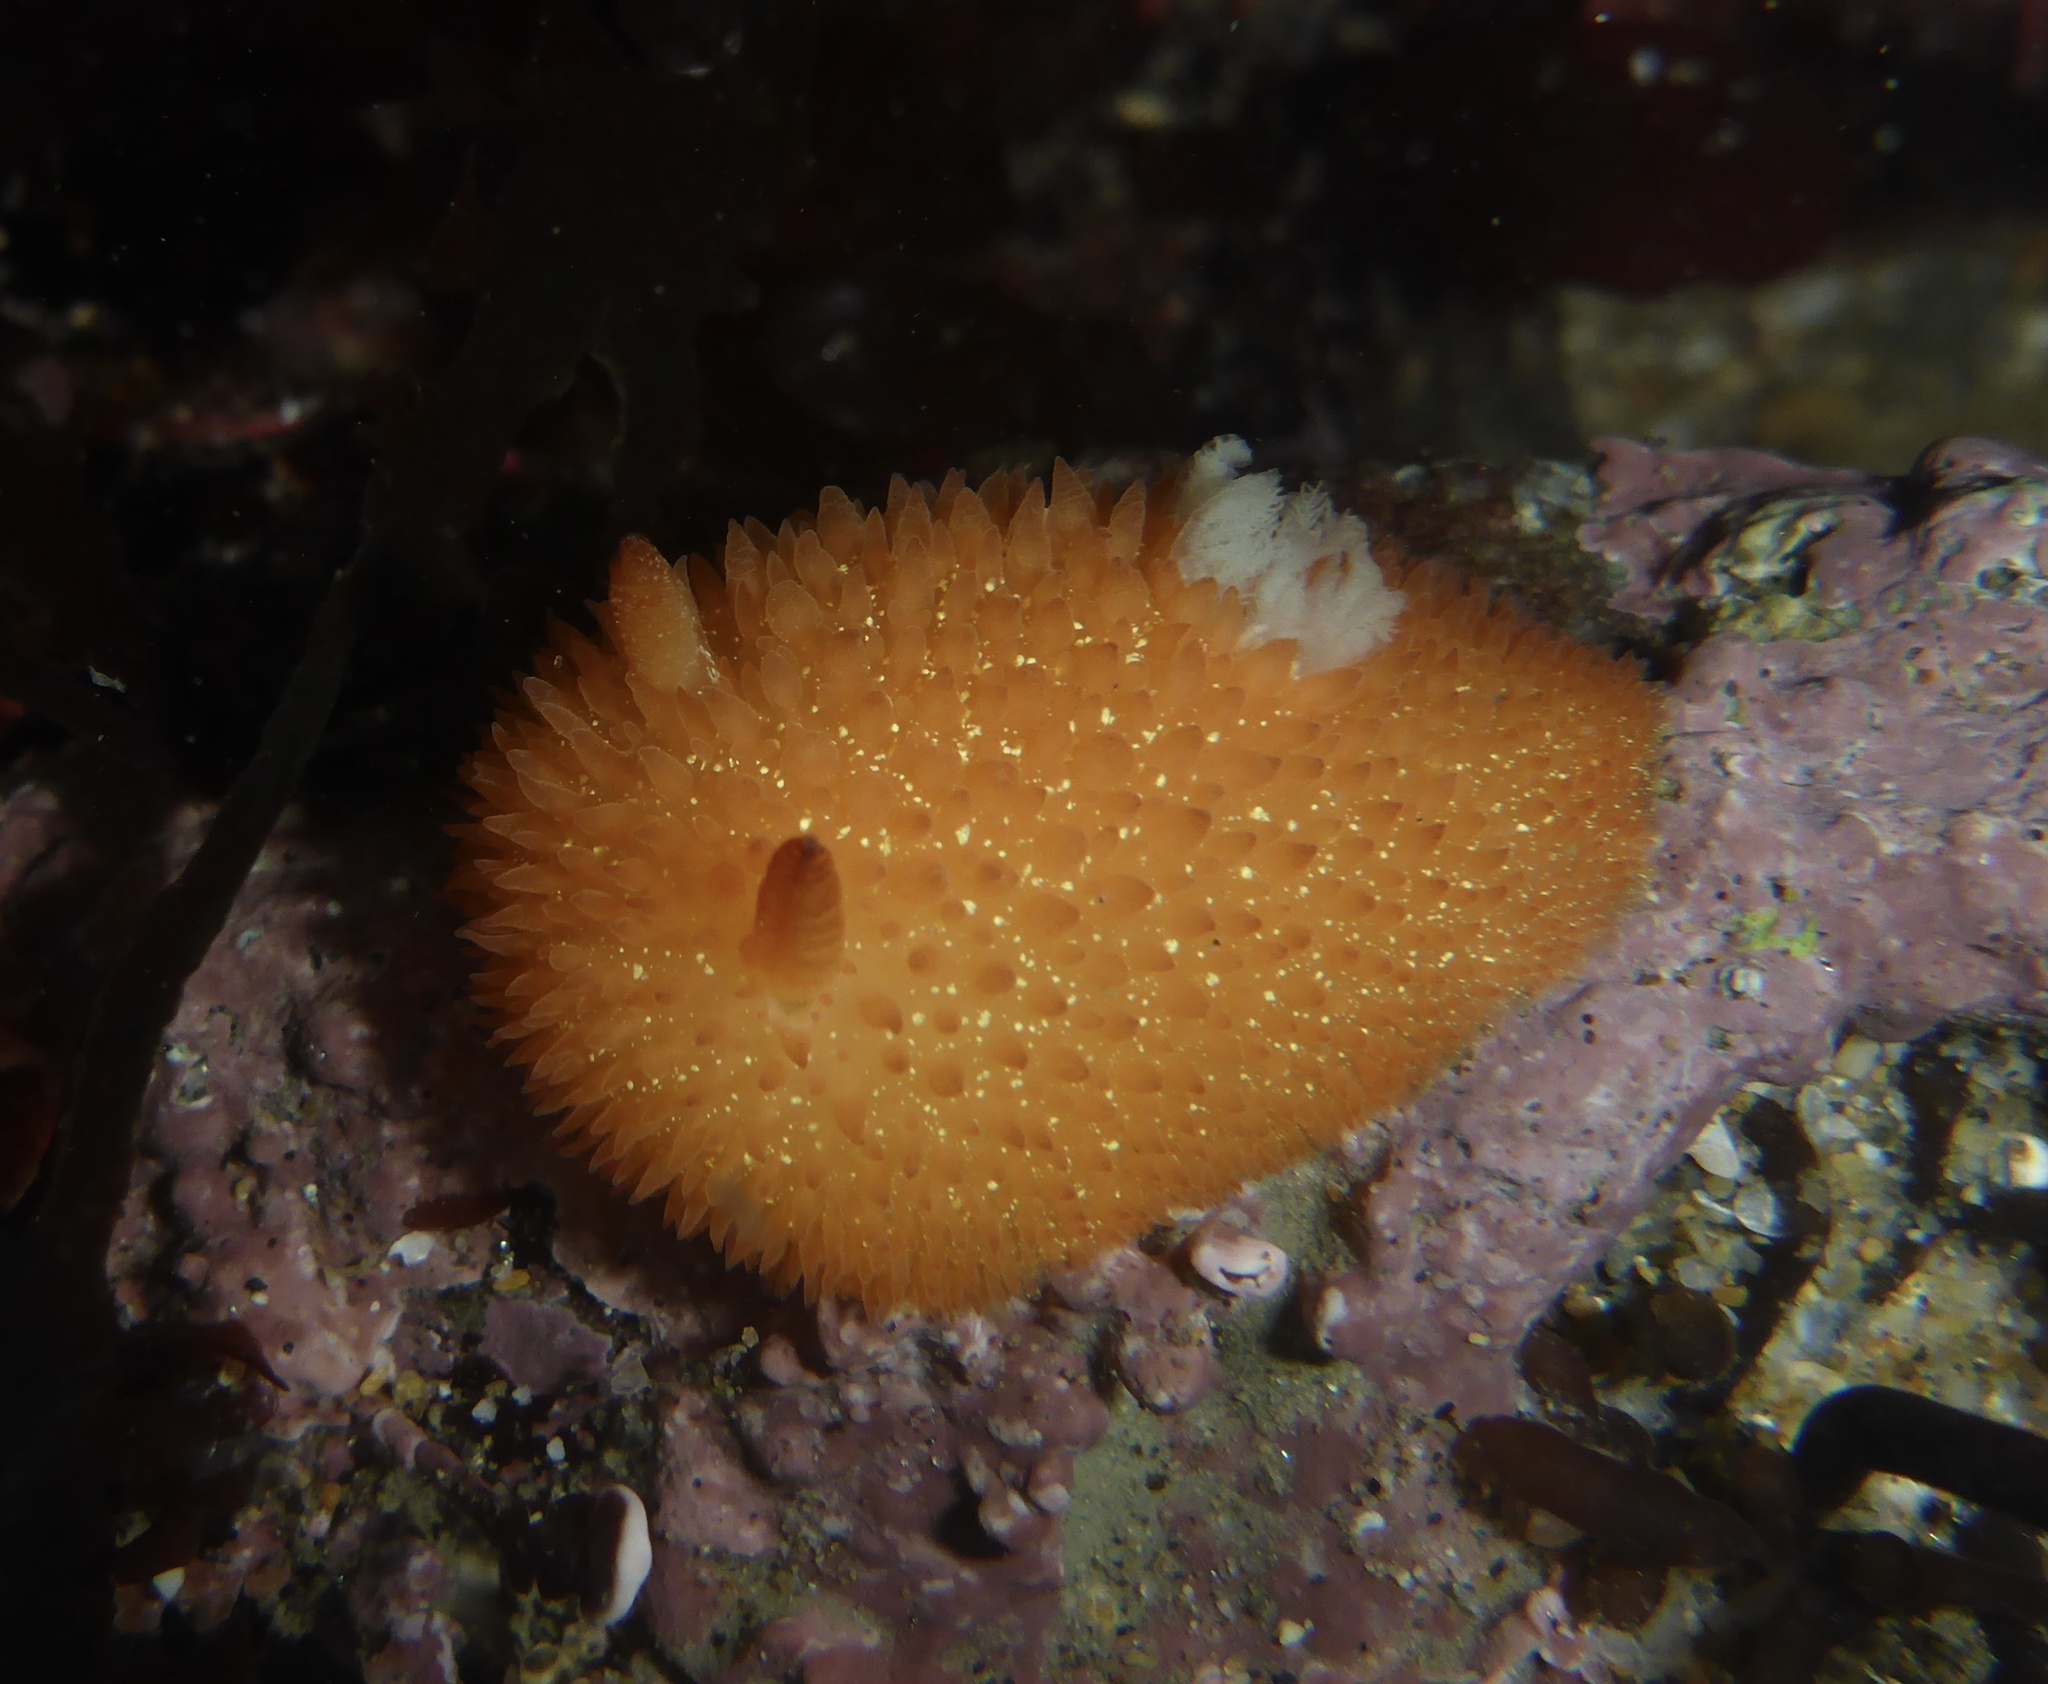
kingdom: Animalia
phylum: Mollusca
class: Gastropoda
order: Nudibranchia
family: Onchidorididae
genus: Acanthodoris
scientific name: Acanthodoris lutea
